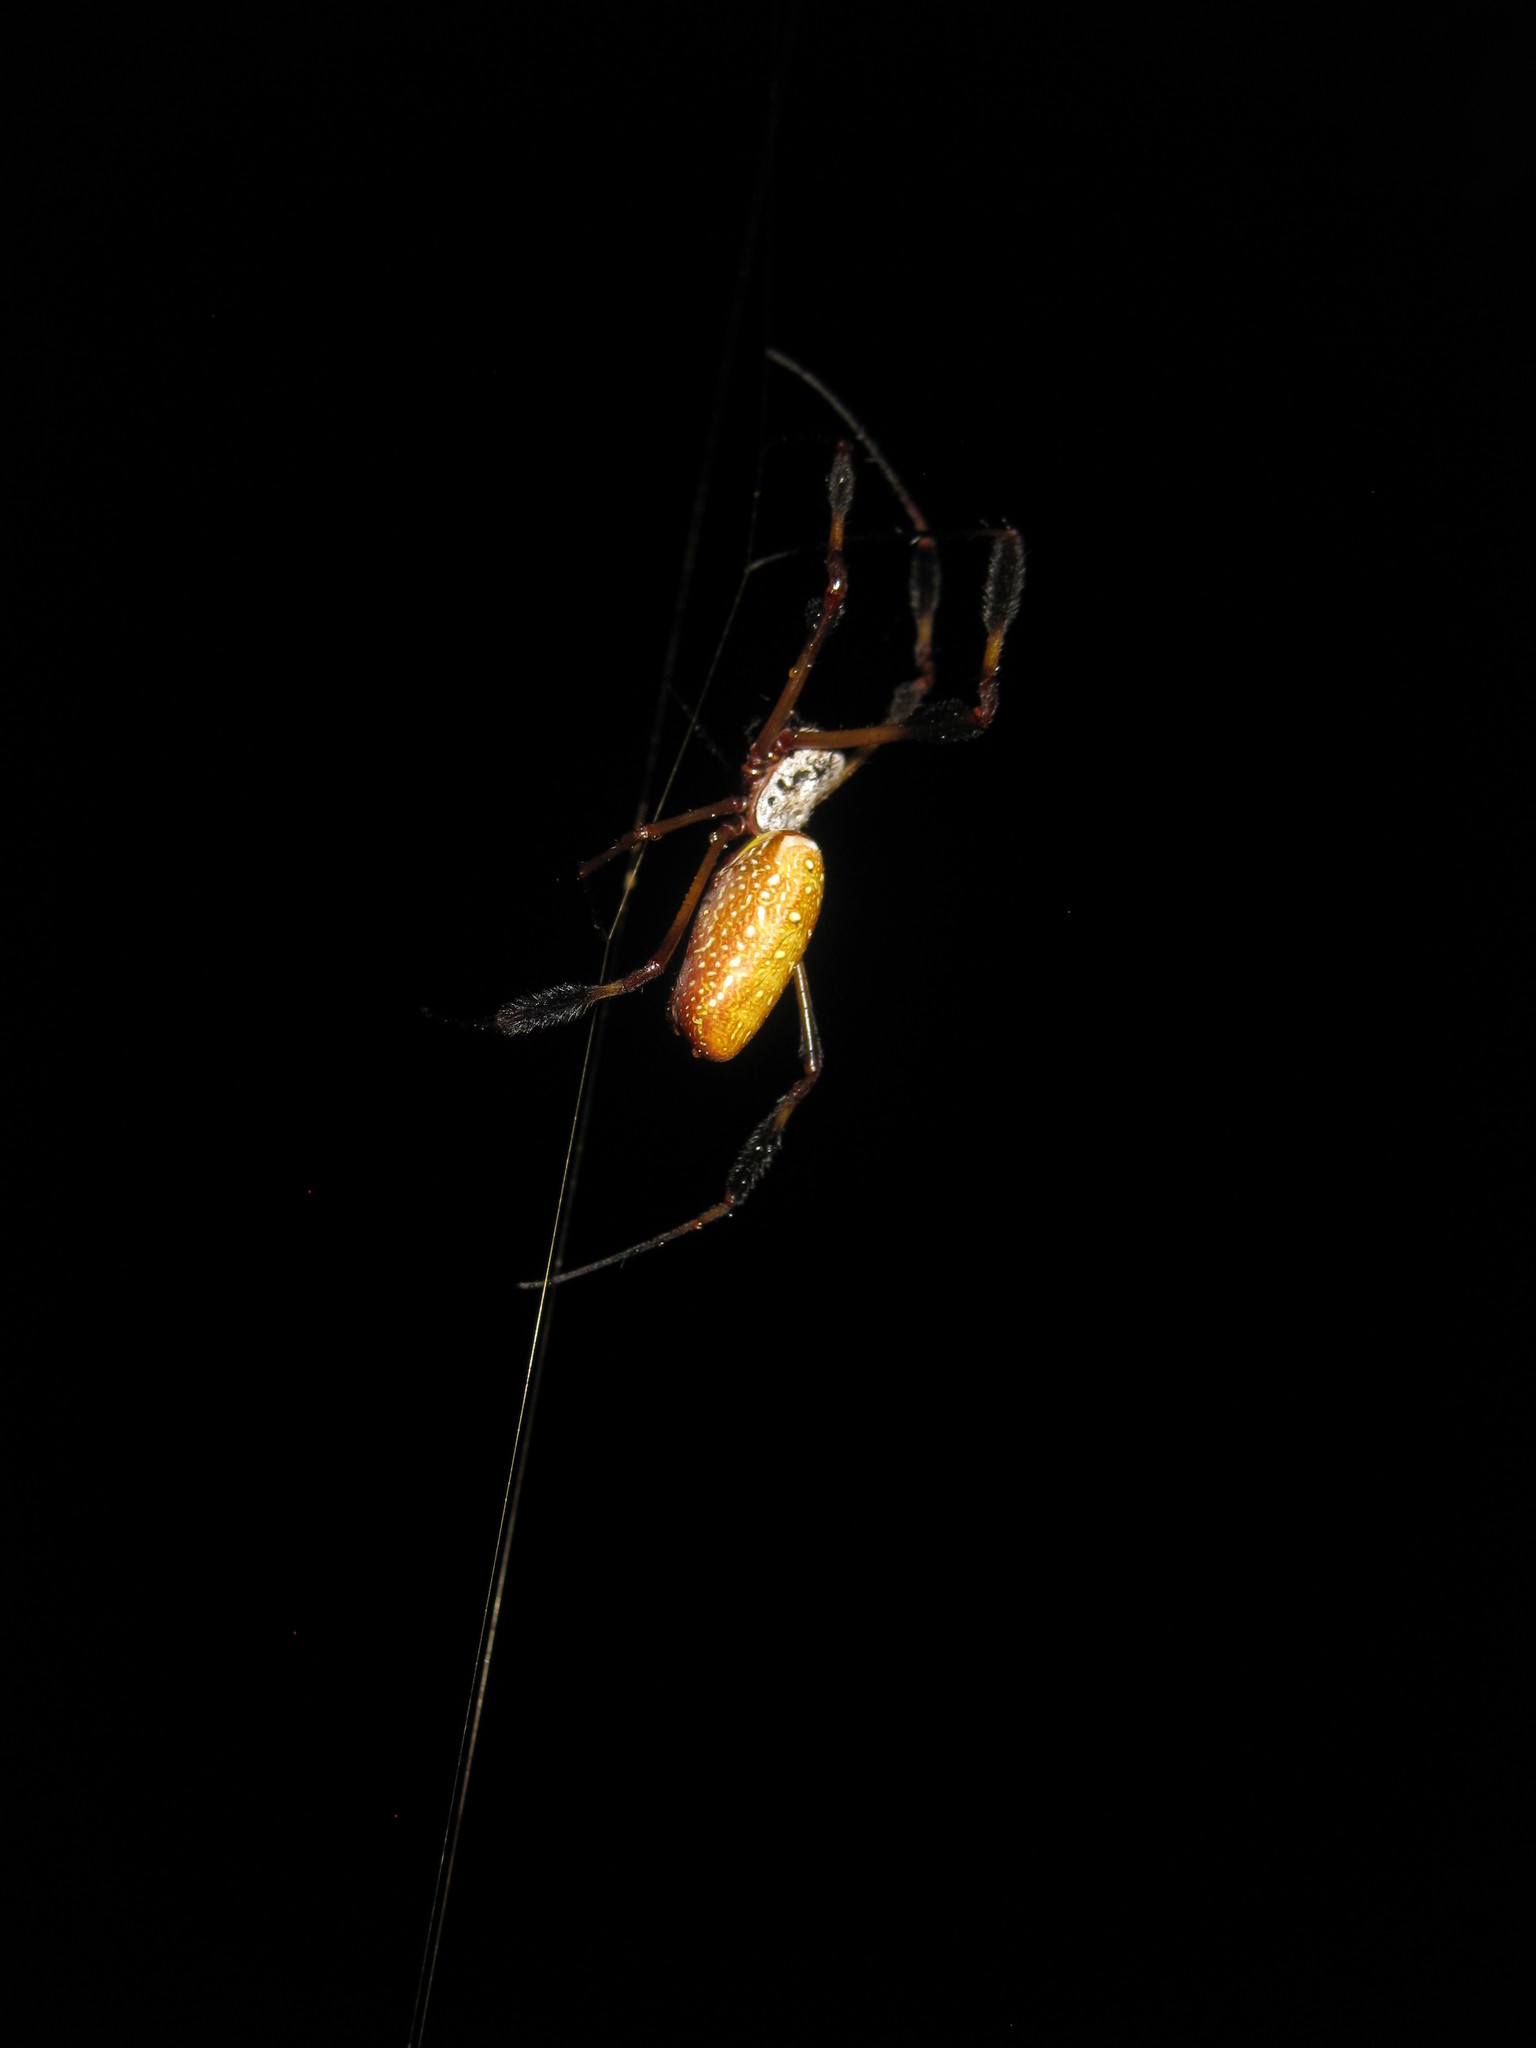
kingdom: Animalia
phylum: Arthropoda
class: Arachnida
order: Araneae
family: Araneidae
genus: Trichonephila
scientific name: Trichonephila clavipes
